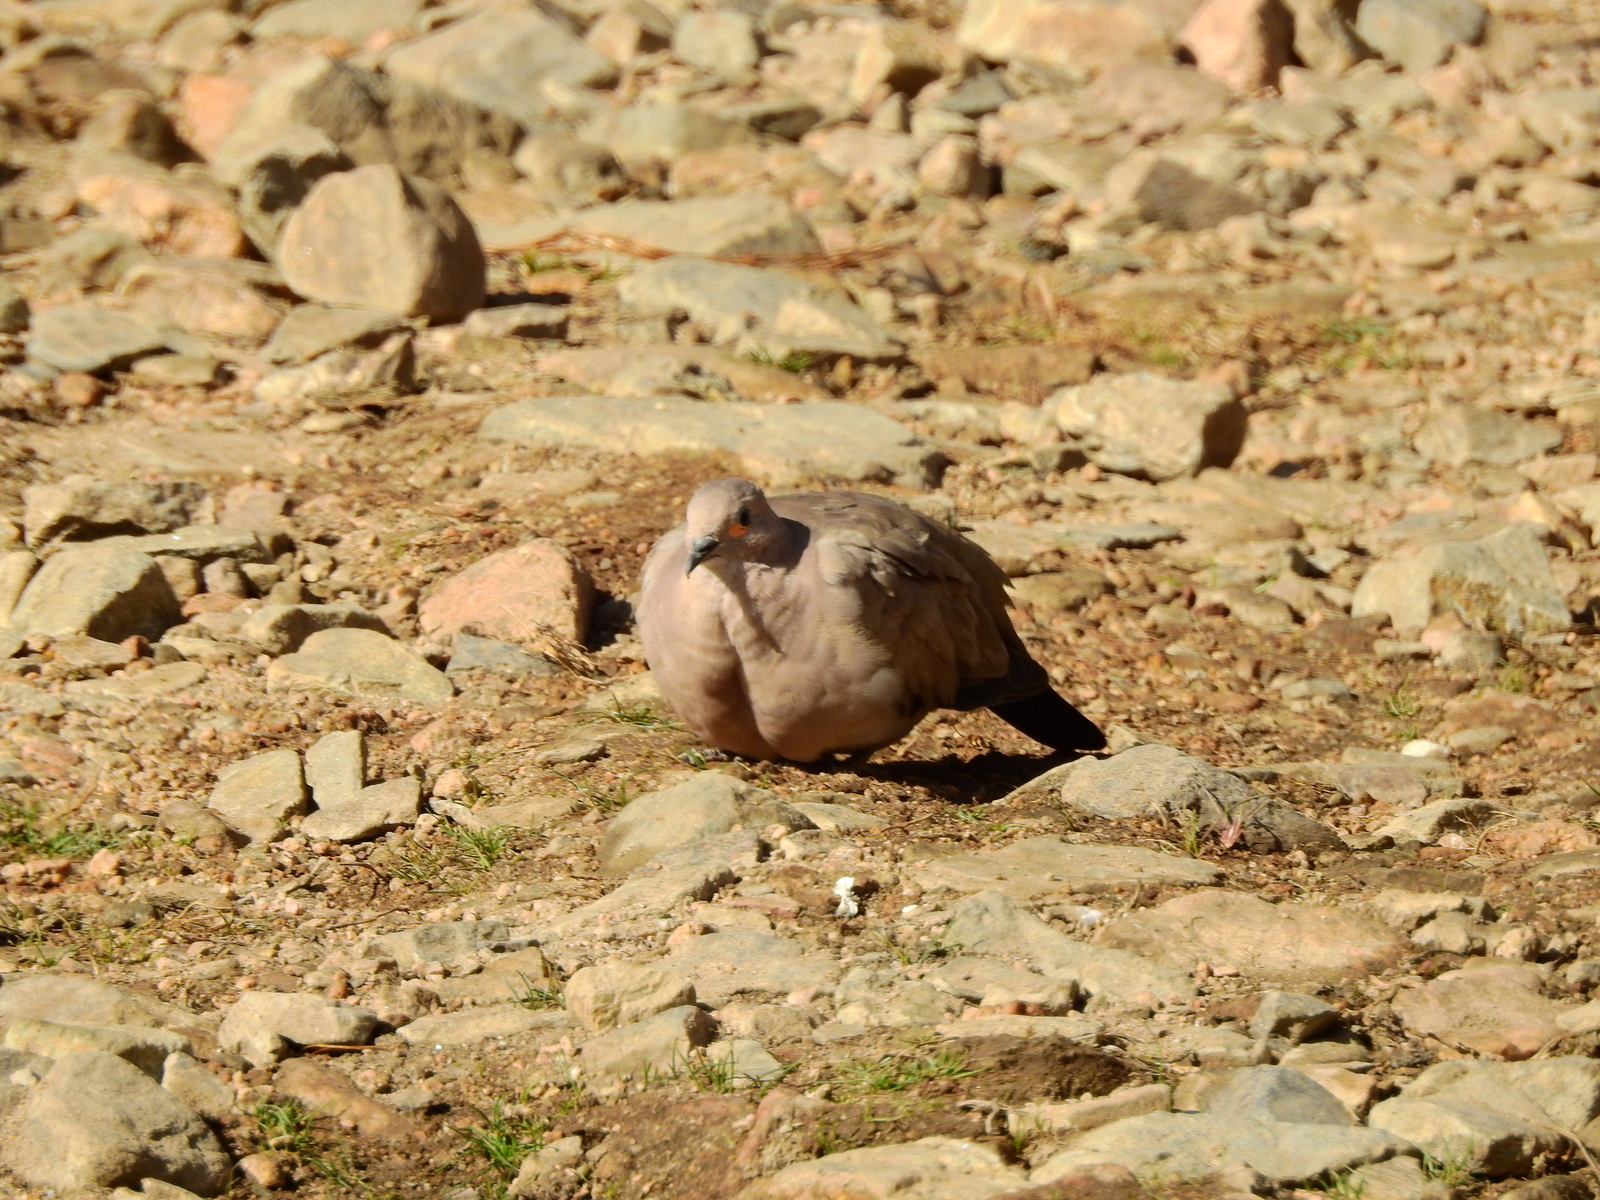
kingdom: Animalia
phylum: Chordata
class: Aves
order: Columbiformes
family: Columbidae
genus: Metriopelia
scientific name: Metriopelia melanoptera
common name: Black-winged ground dove
